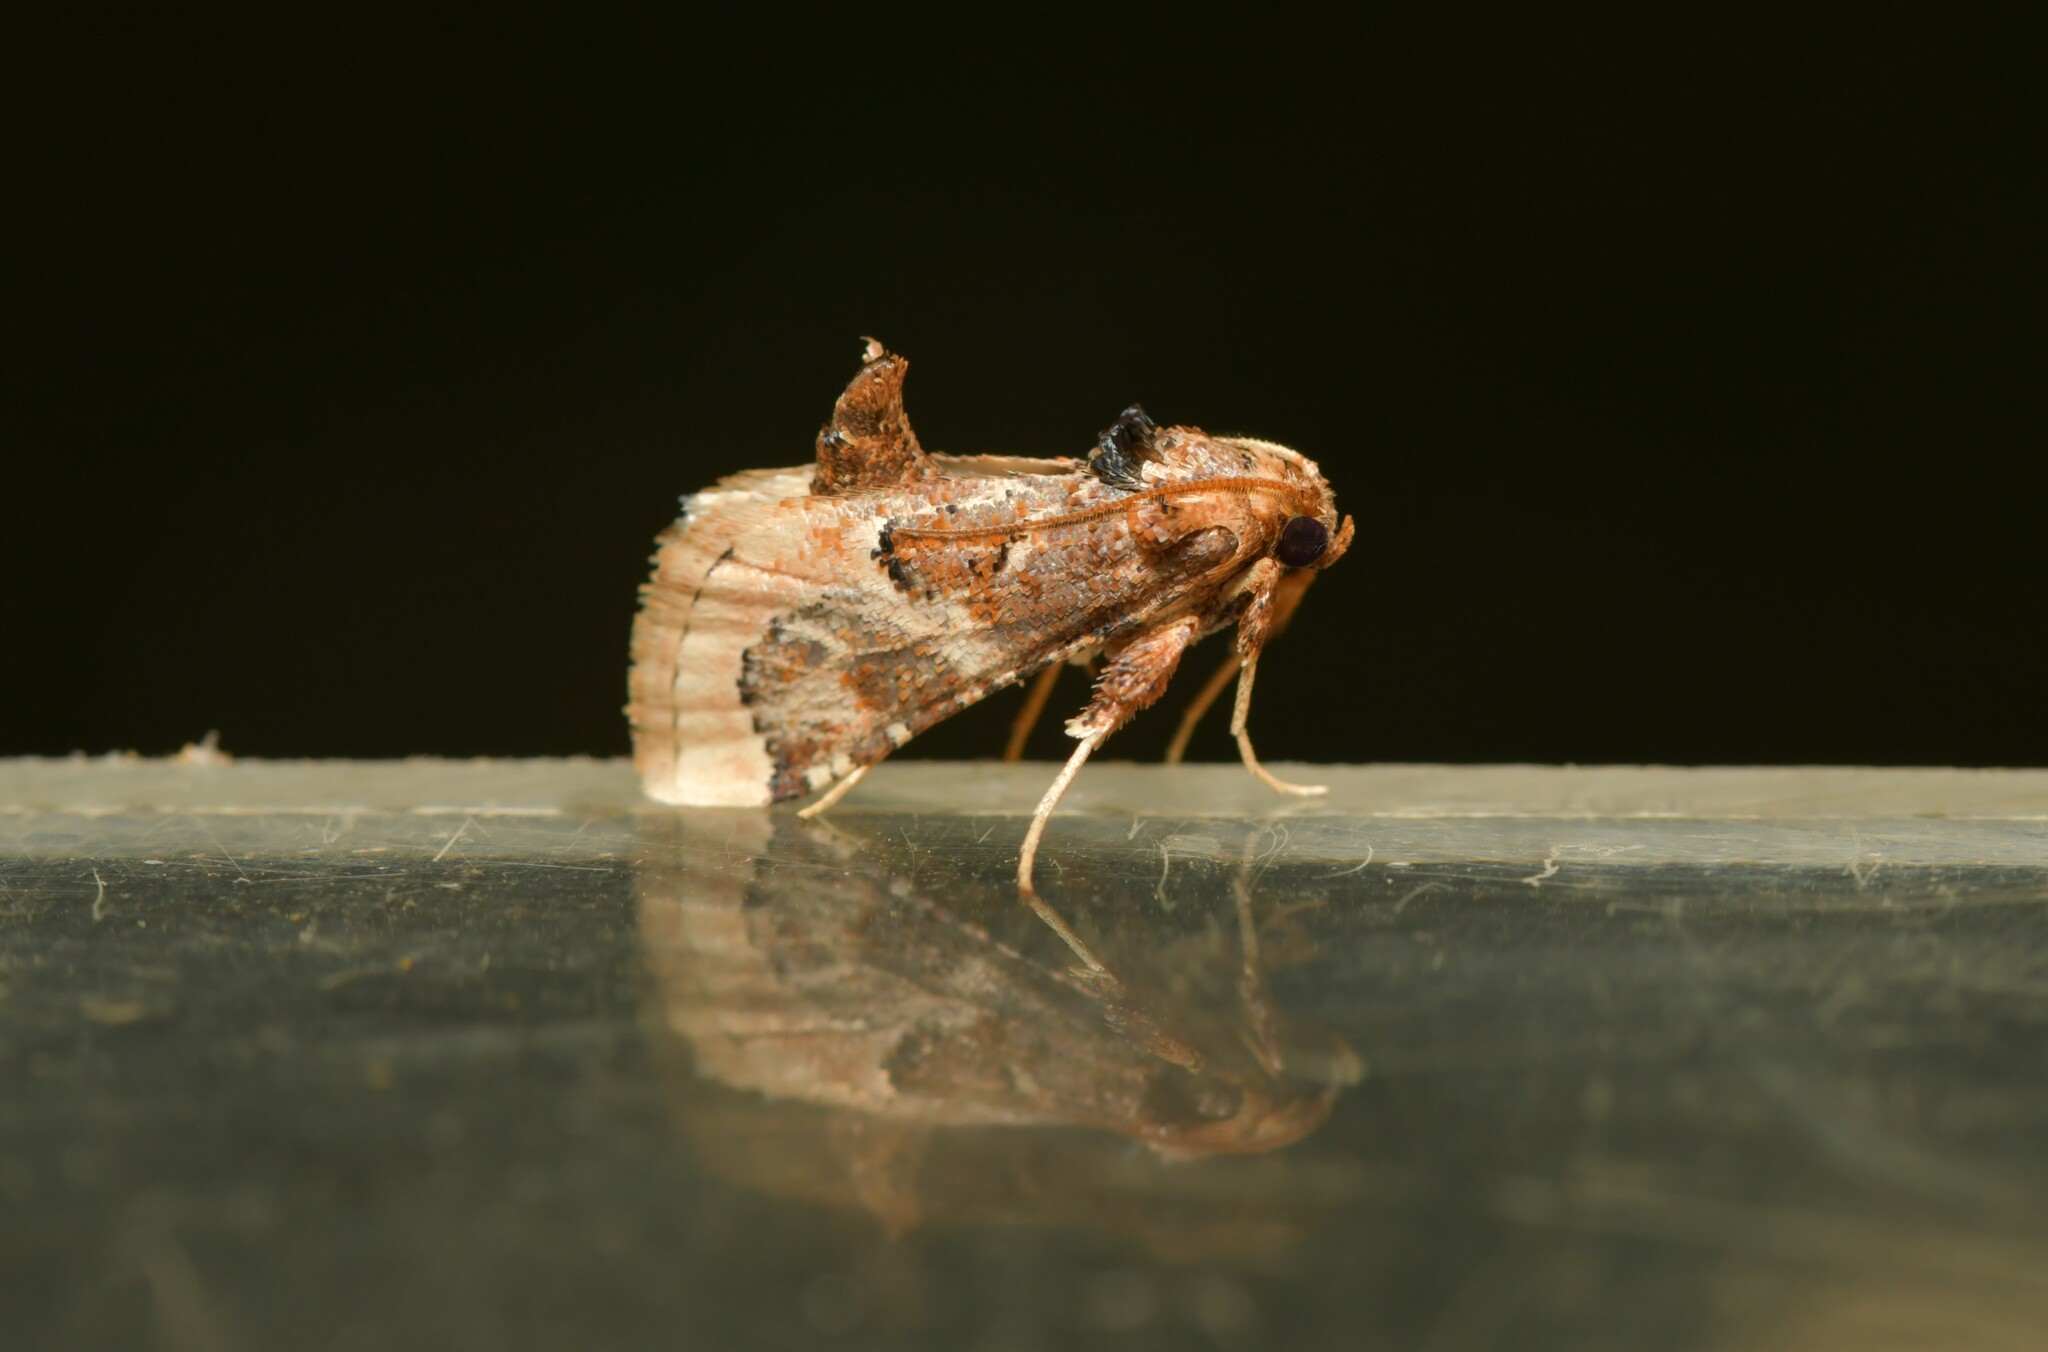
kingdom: Animalia
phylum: Arthropoda
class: Insecta
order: Lepidoptera
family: Pyralidae
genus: Loryma
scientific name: Loryma egregialis
